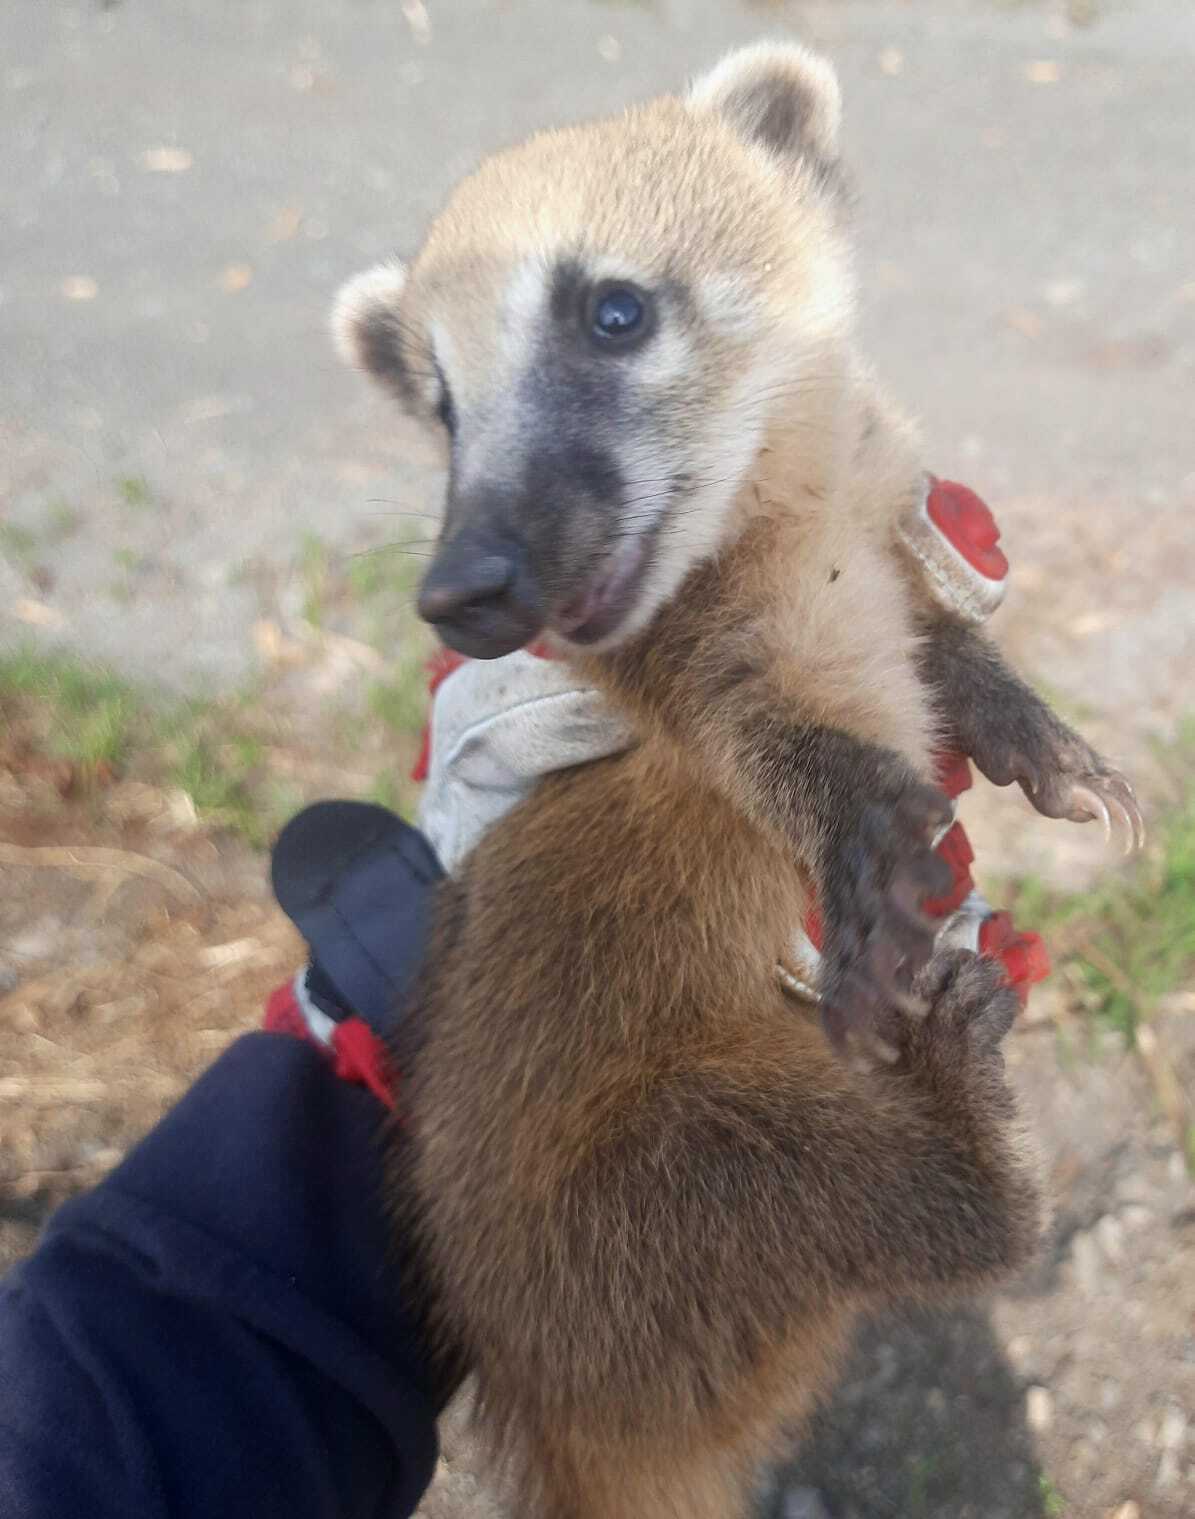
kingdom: Animalia
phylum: Chordata
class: Mammalia
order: Carnivora
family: Procyonidae
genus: Nasua
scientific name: Nasua nasua
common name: South american coati
